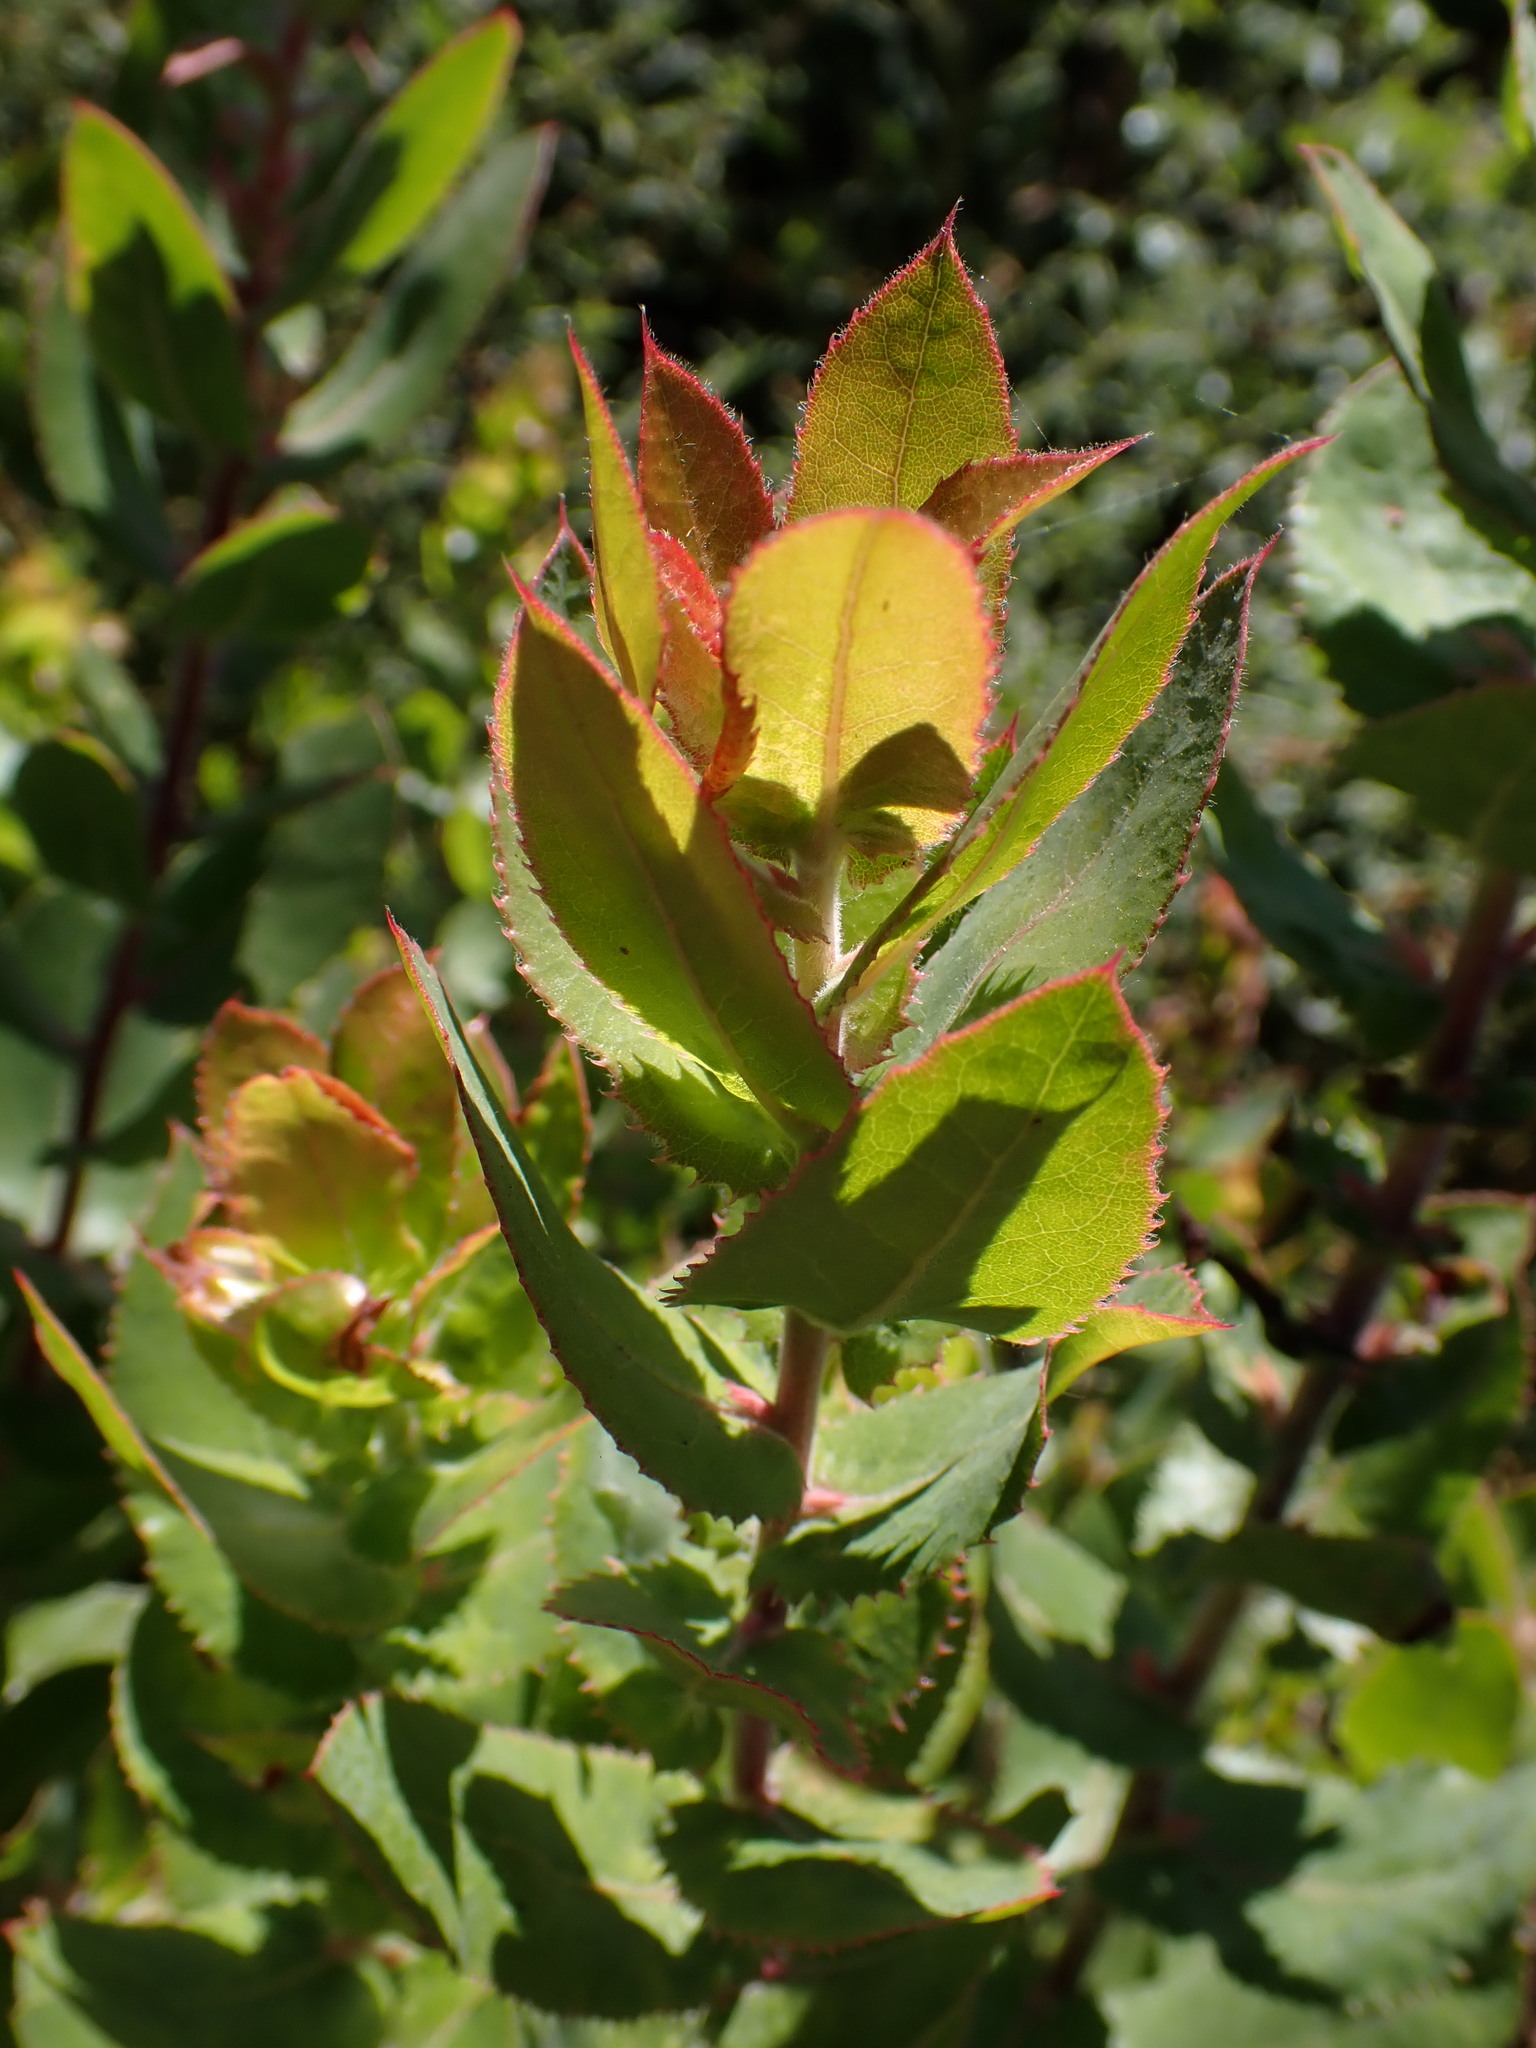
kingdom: Plantae
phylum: Tracheophyta
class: Magnoliopsida
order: Ericales
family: Ericaceae
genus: Arctostaphylos
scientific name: Arctostaphylos andersonii
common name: Santa cruz manzanita
